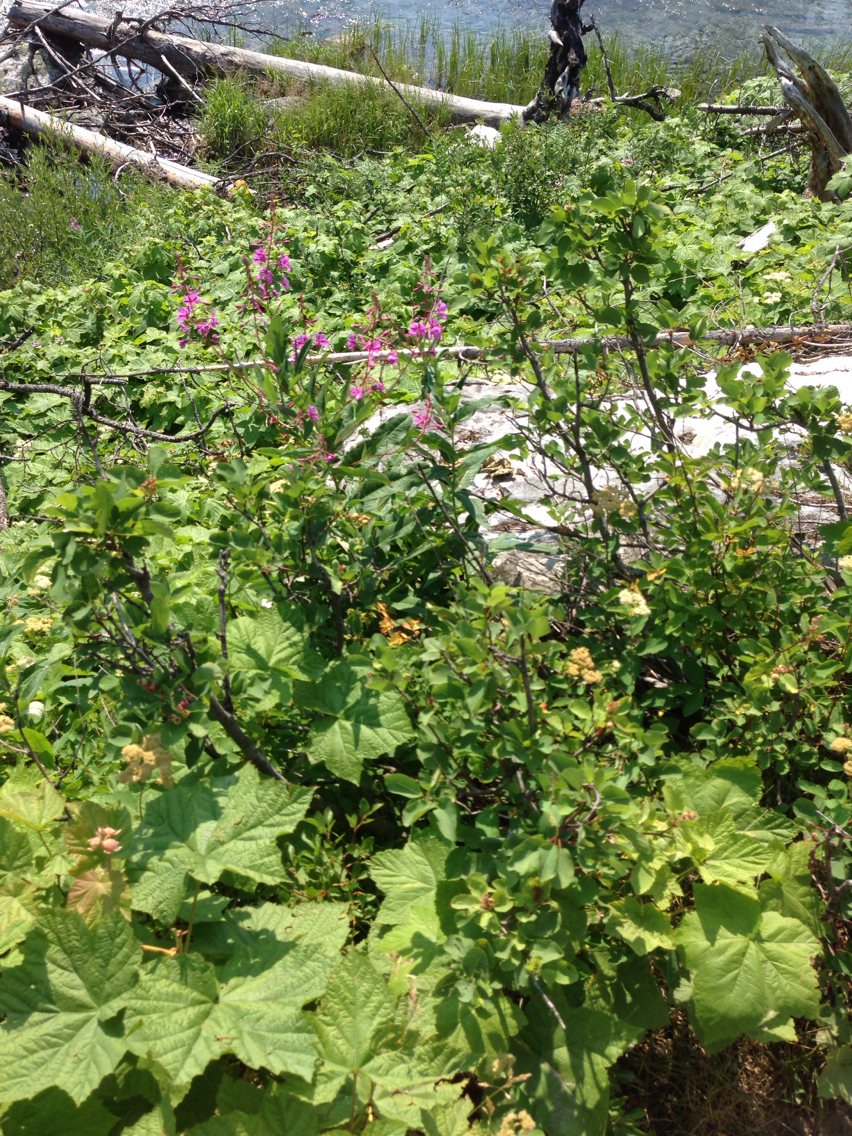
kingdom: Plantae
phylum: Tracheophyta
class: Magnoliopsida
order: Myrtales
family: Onagraceae
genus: Chamaenerion
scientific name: Chamaenerion angustifolium
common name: Fireweed
